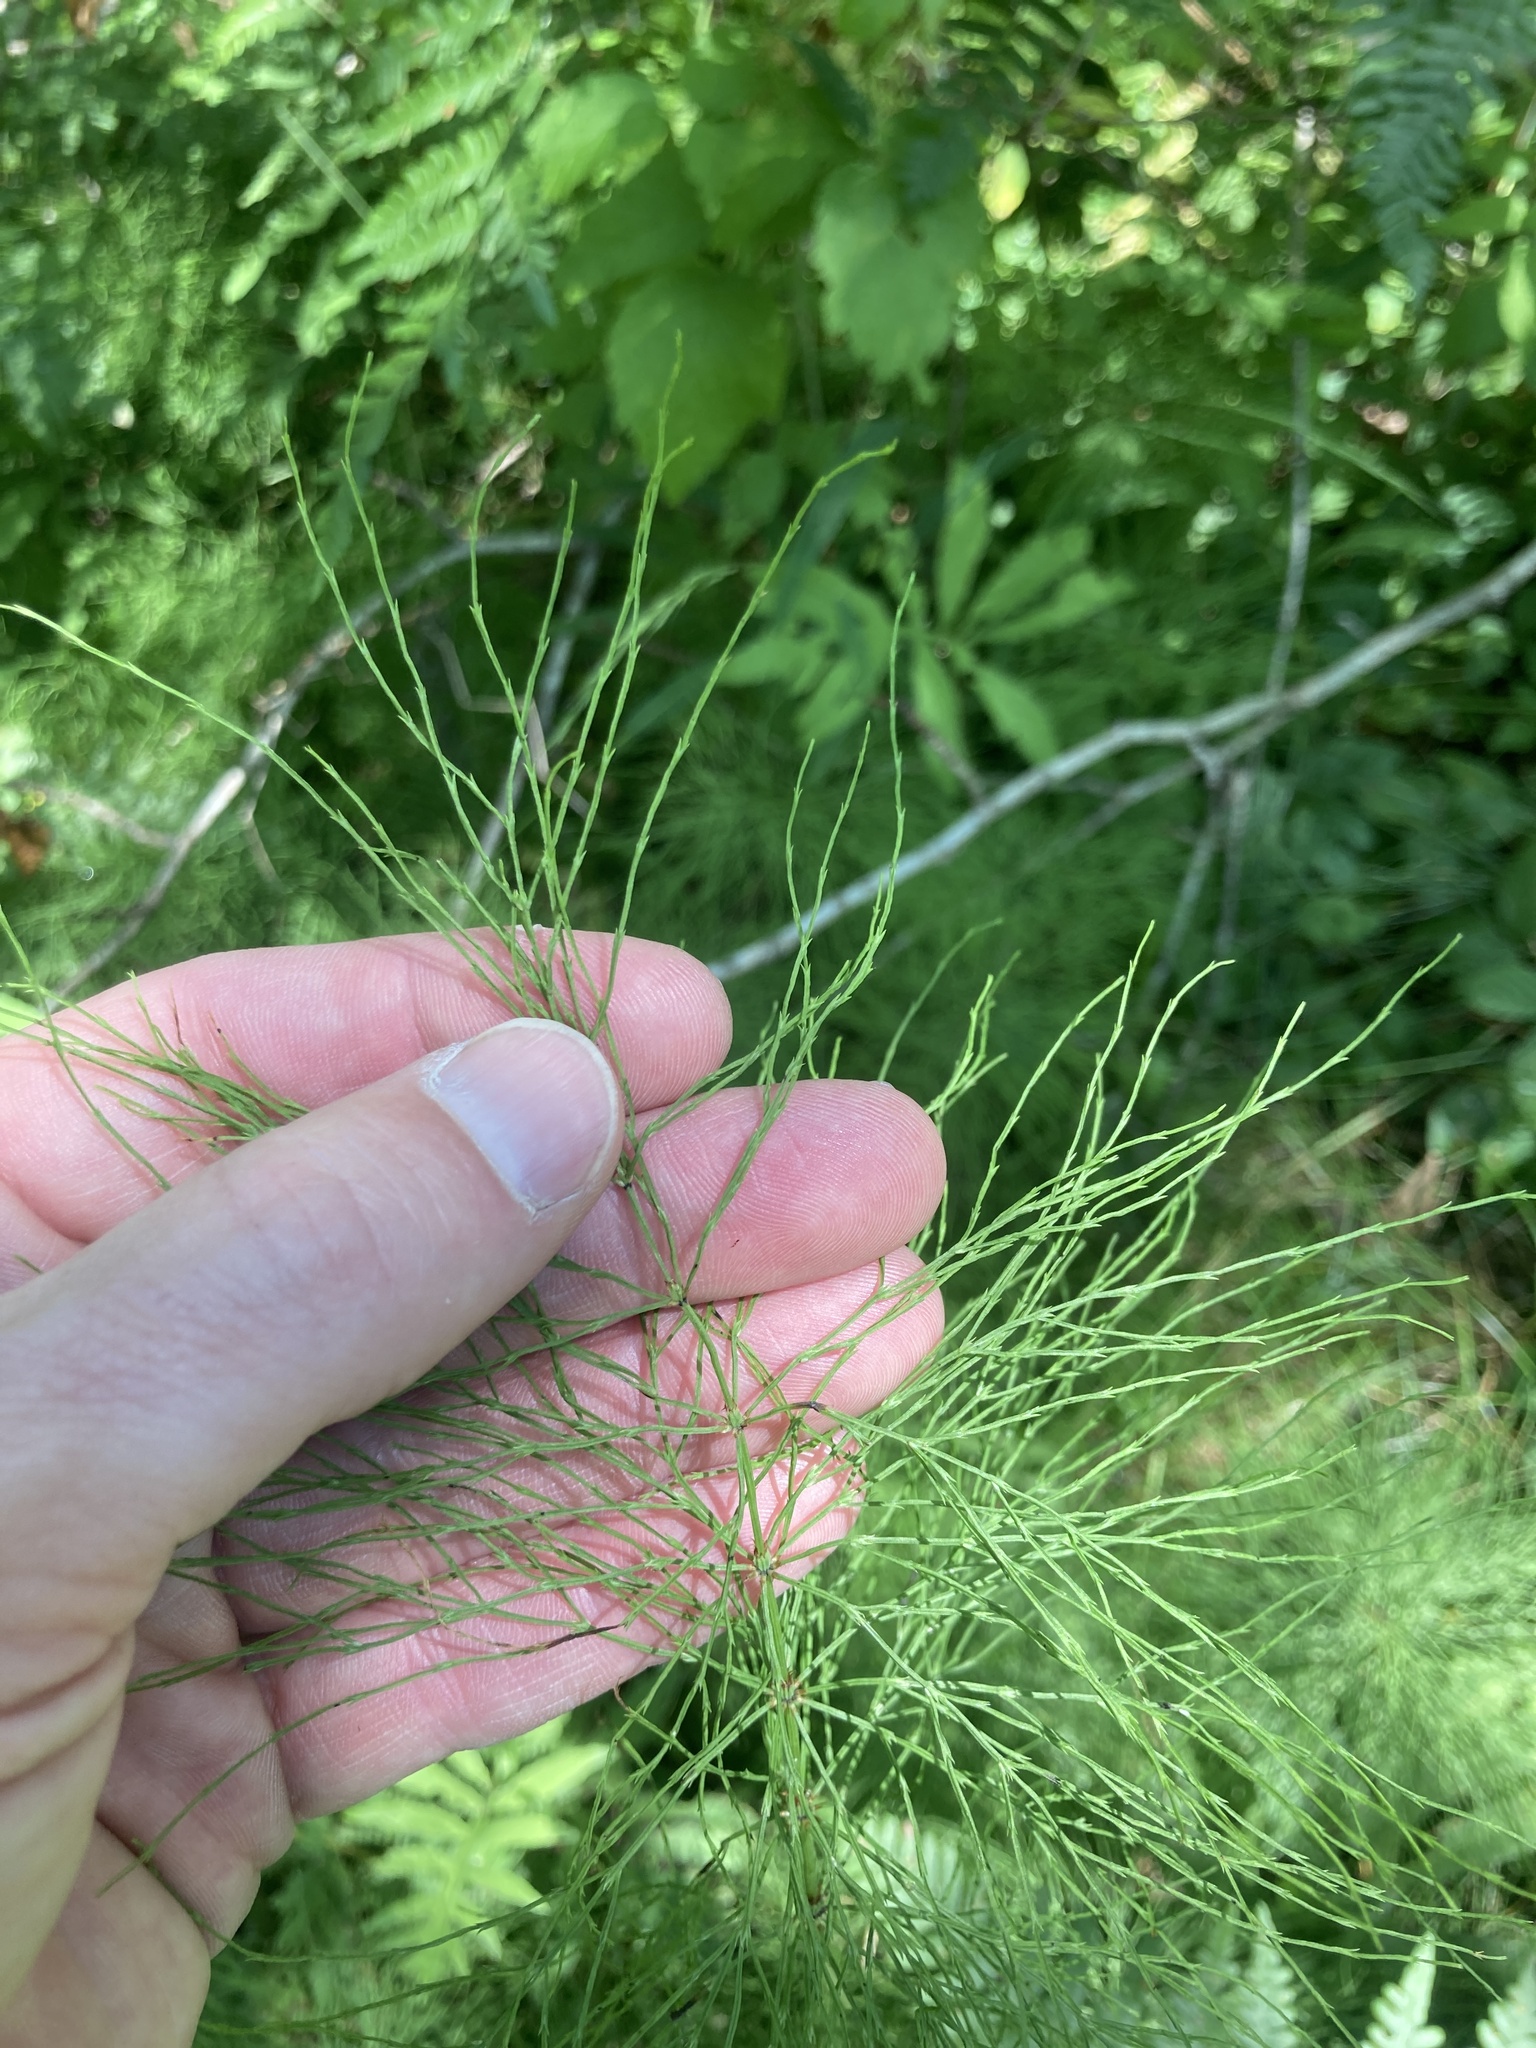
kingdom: Plantae
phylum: Tracheophyta
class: Polypodiopsida
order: Equisetales
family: Equisetaceae
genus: Equisetum
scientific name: Equisetum sylvaticum
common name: Wood horsetail
